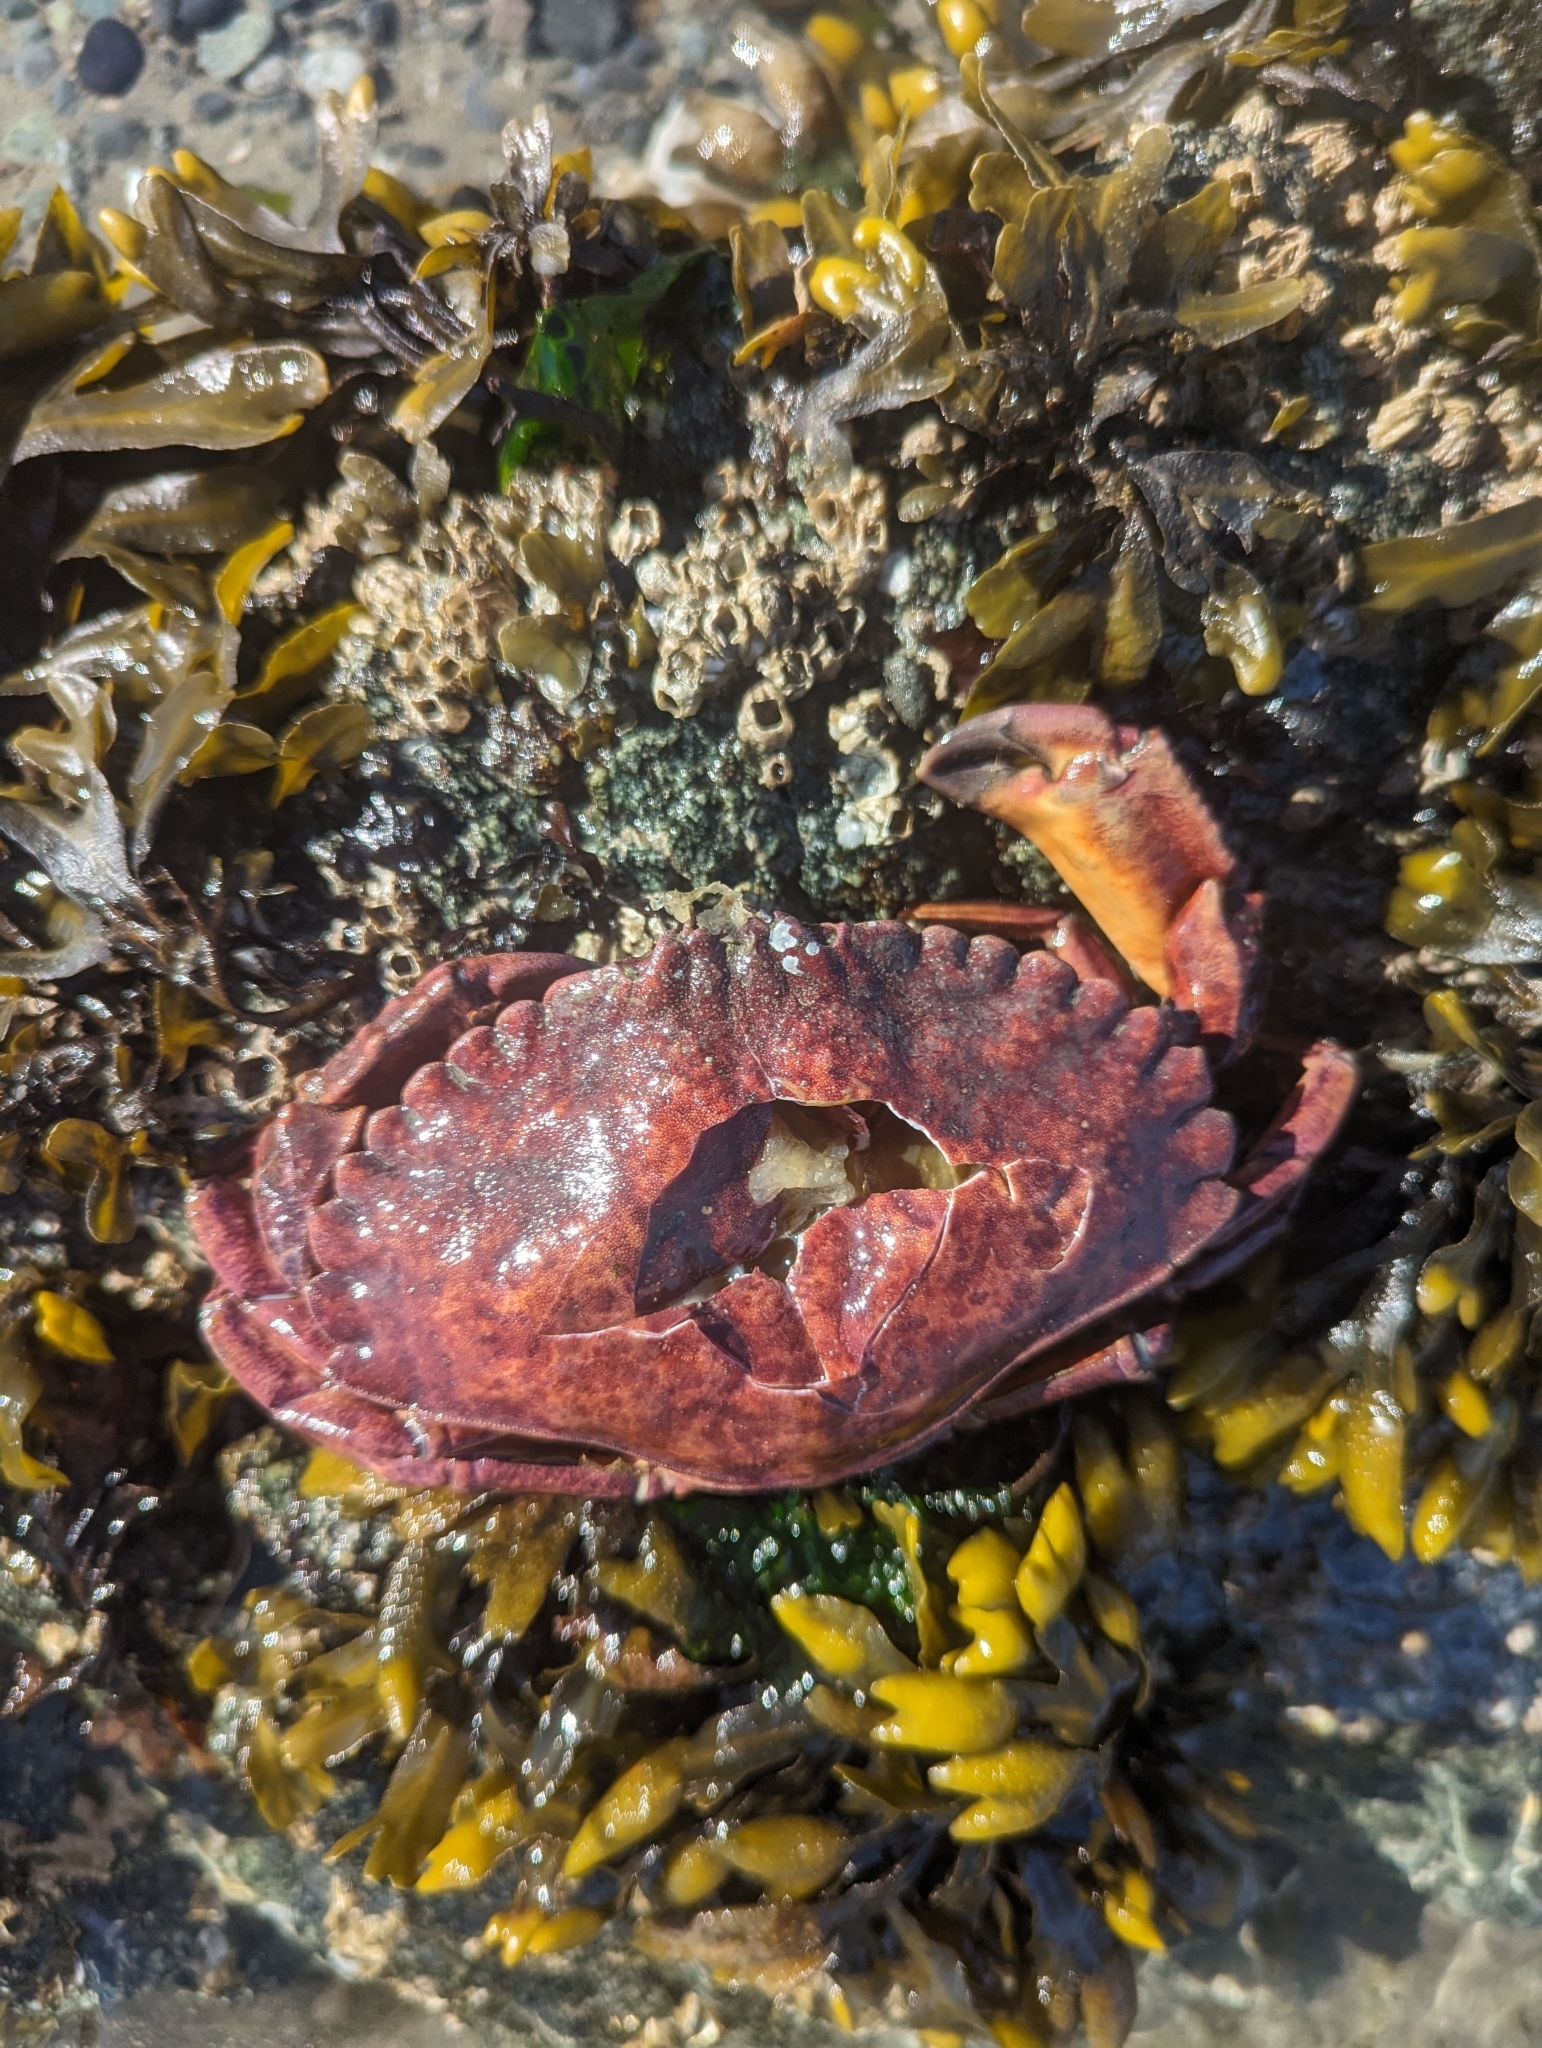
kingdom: Animalia
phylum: Arthropoda
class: Malacostraca
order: Decapoda
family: Cancridae
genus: Cancer
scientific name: Cancer productus
